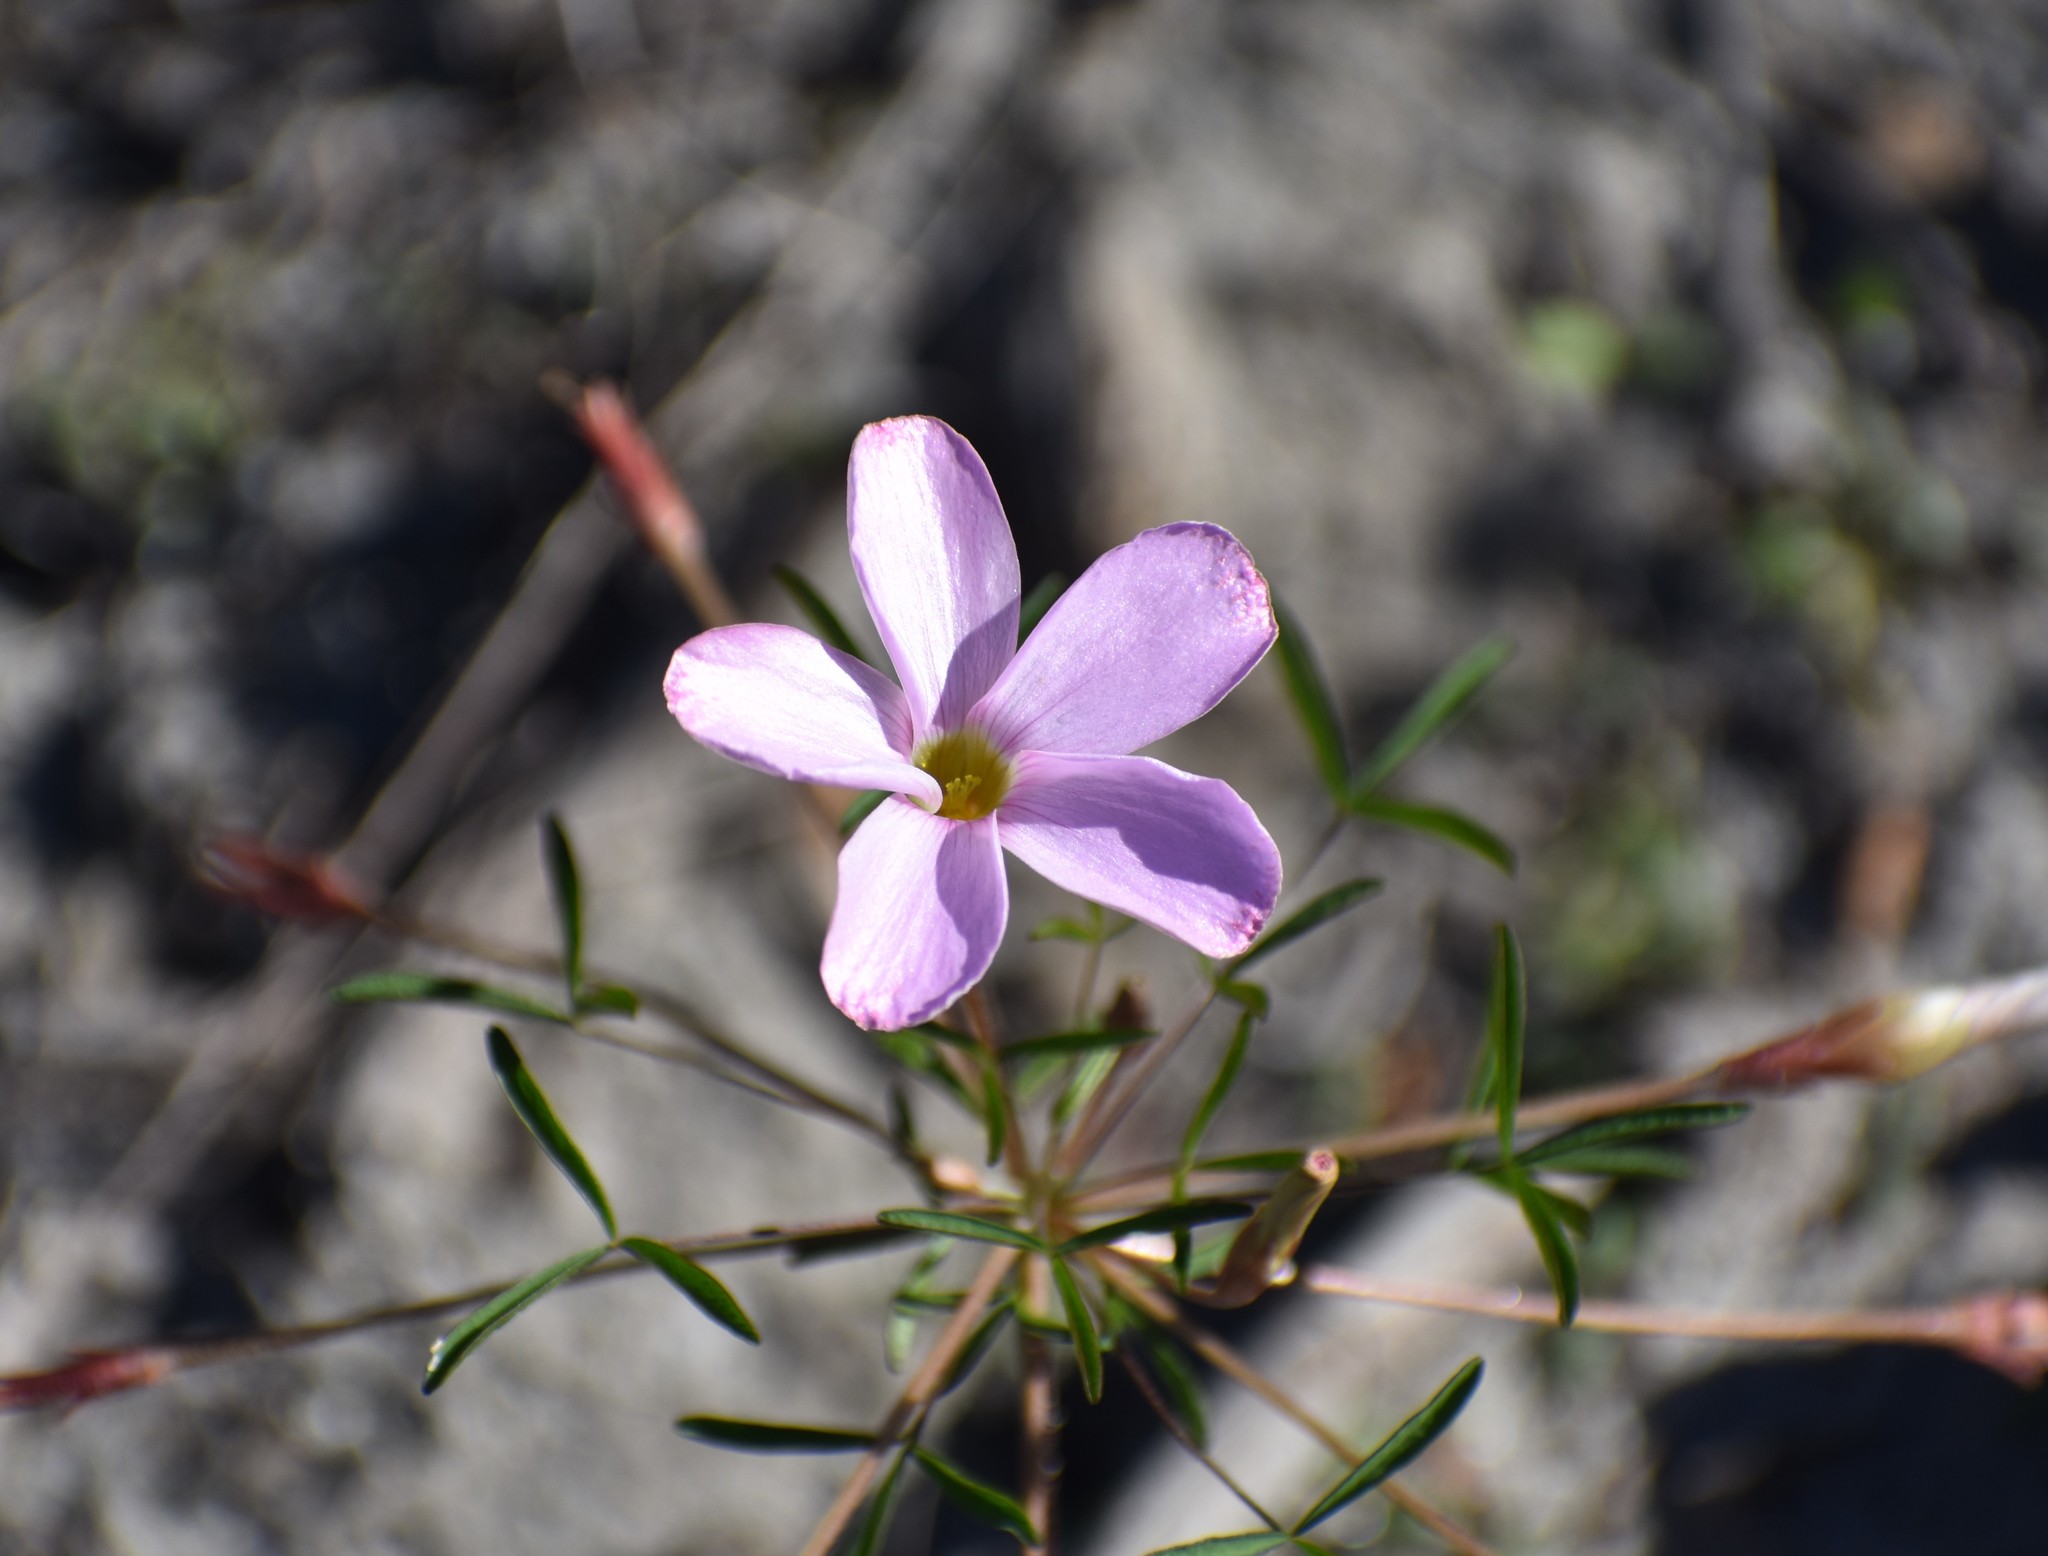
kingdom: Plantae
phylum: Tracheophyta
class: Magnoliopsida
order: Oxalidales
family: Oxalidaceae
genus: Oxalis
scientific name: Oxalis ciliaris
